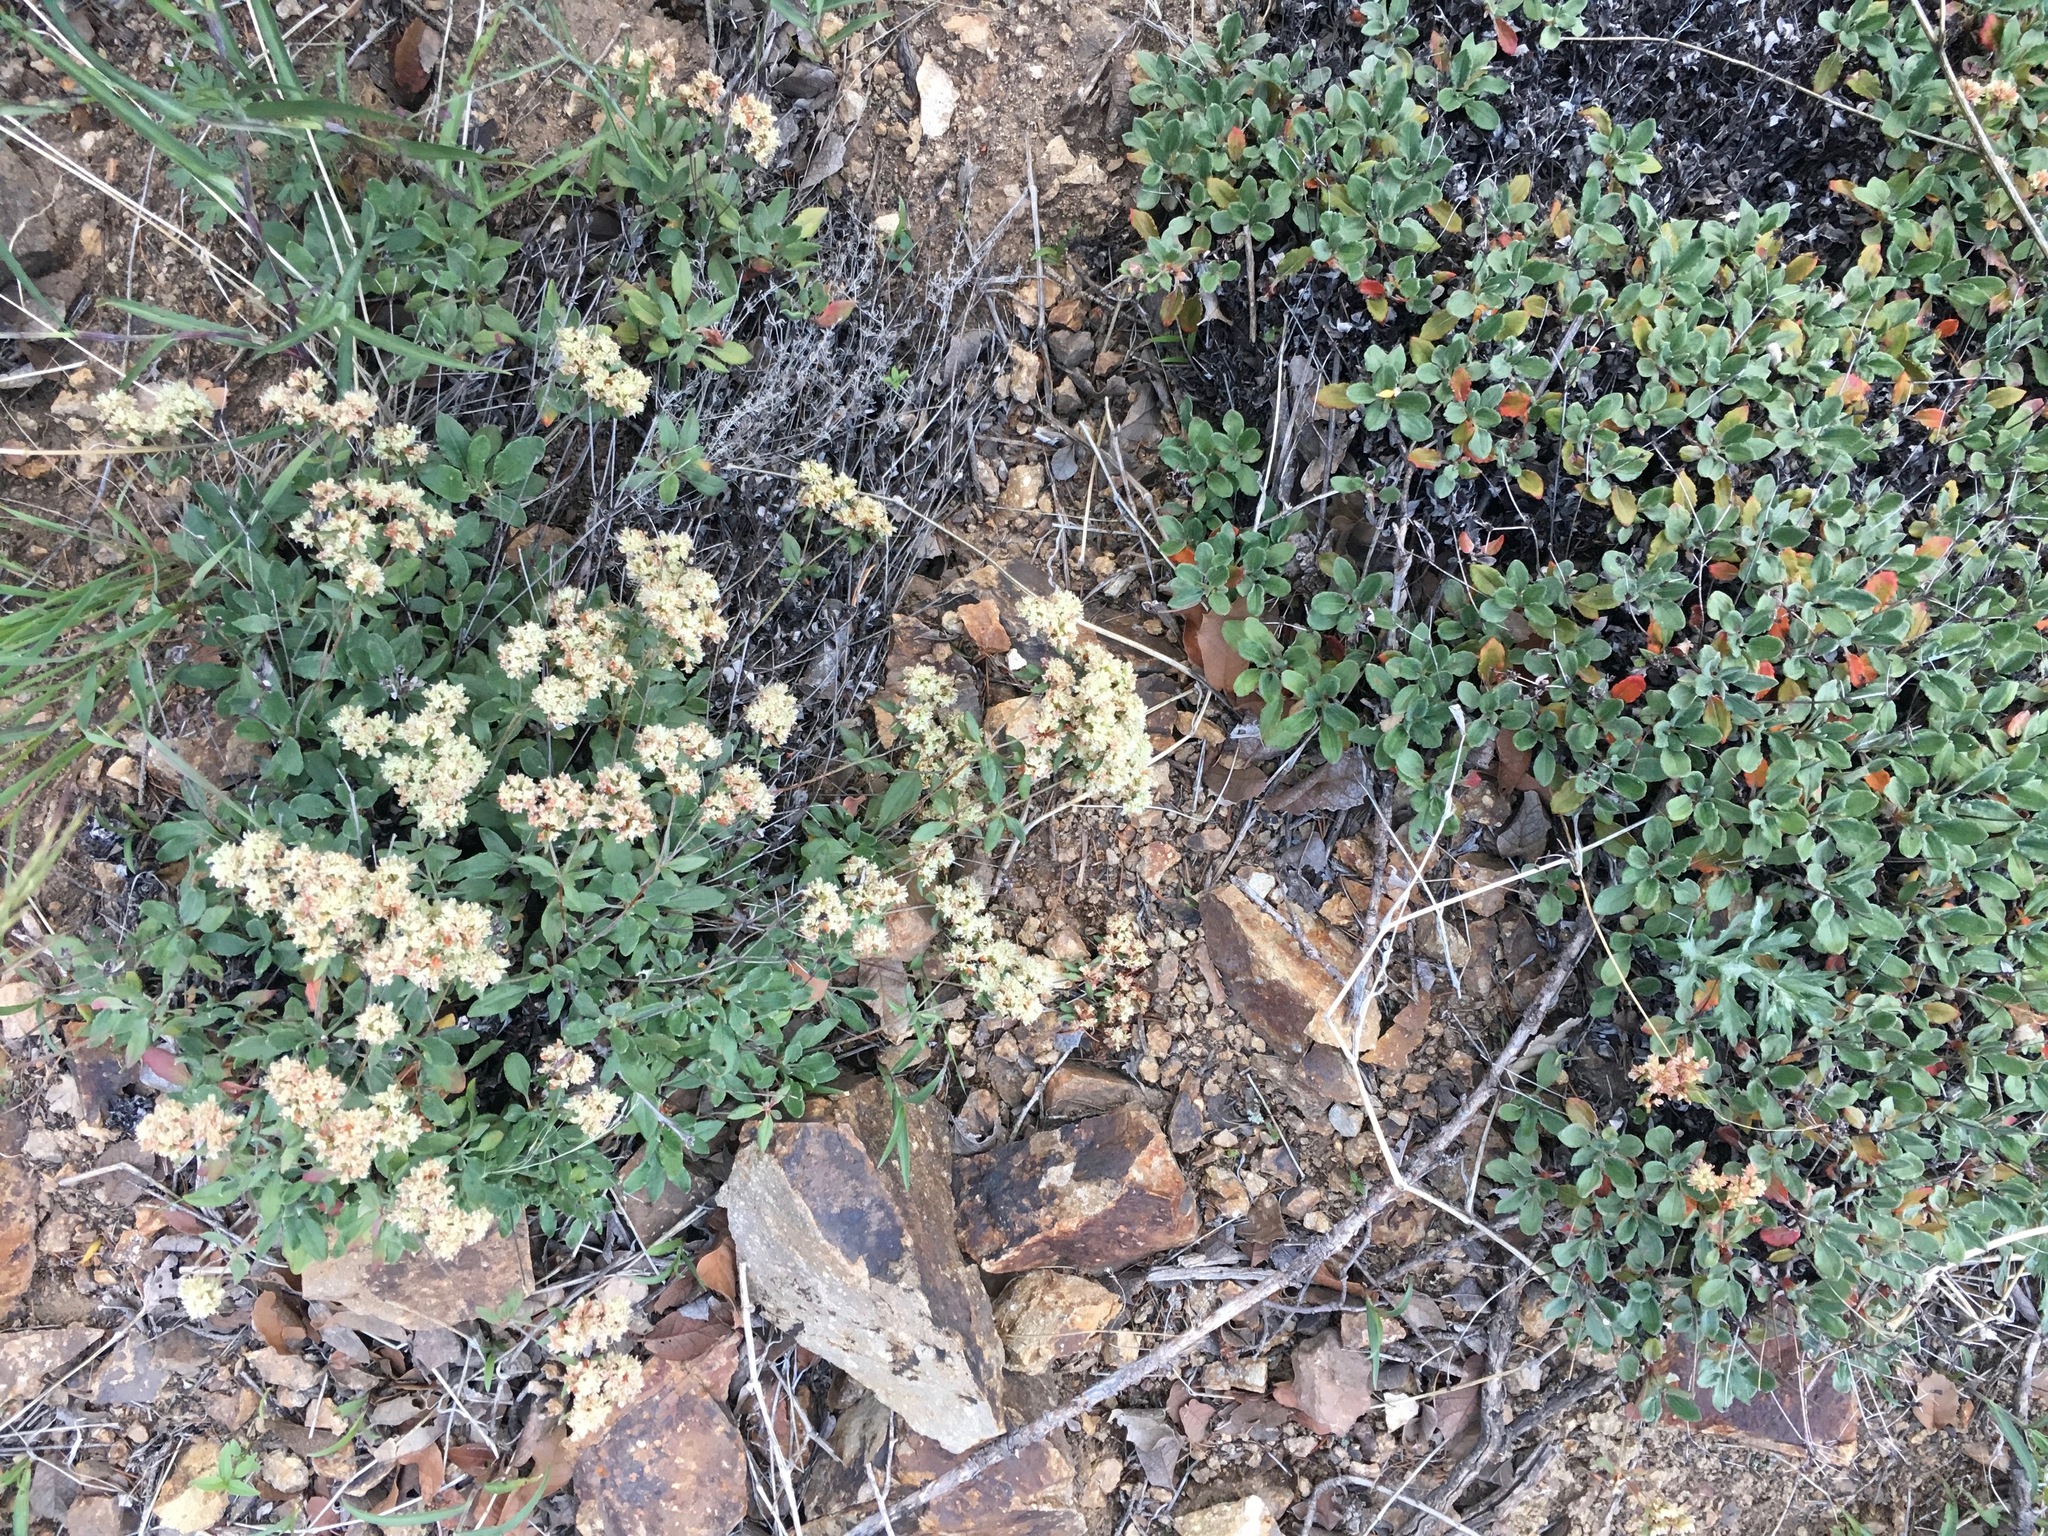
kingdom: Plantae
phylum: Tracheophyta
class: Magnoliopsida
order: Caryophyllales
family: Polygonaceae
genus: Eriogonum
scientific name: Eriogonum jamesii
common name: Antelope-sage
